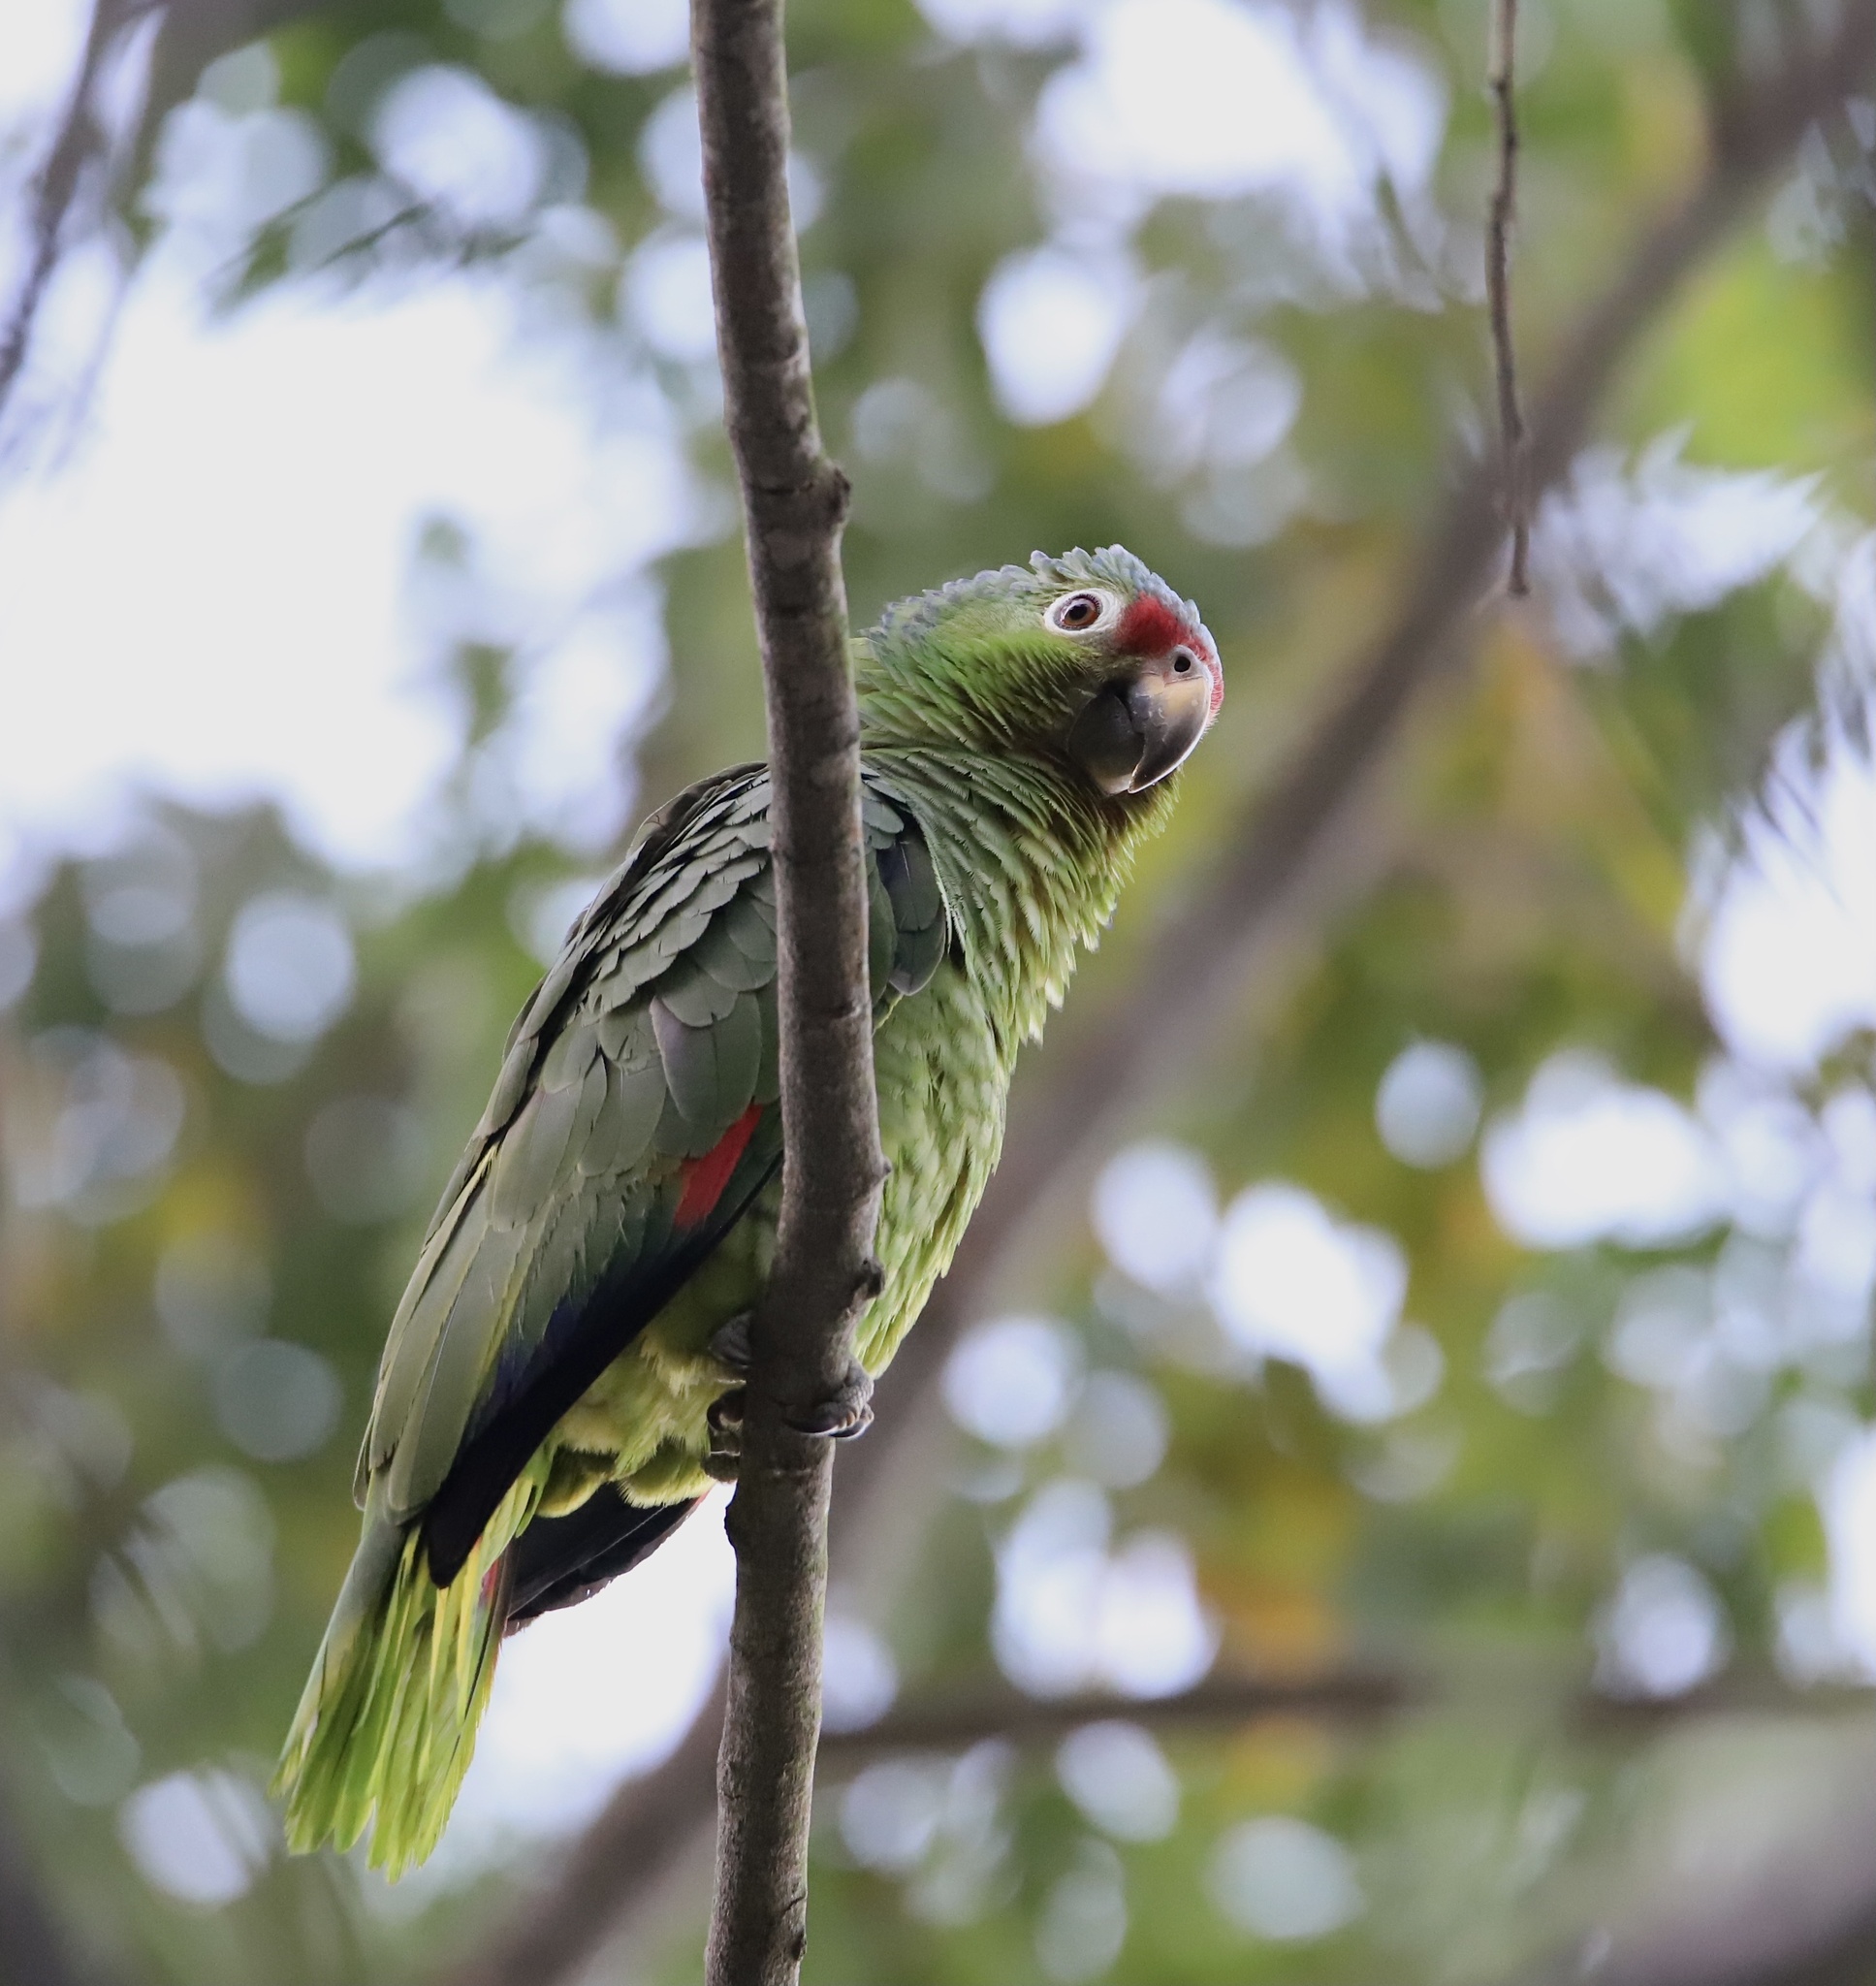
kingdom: Animalia
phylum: Chordata
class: Aves
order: Psittaciformes
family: Psittacidae
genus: Amazona
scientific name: Amazona autumnalis
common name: Red-lored amazon
